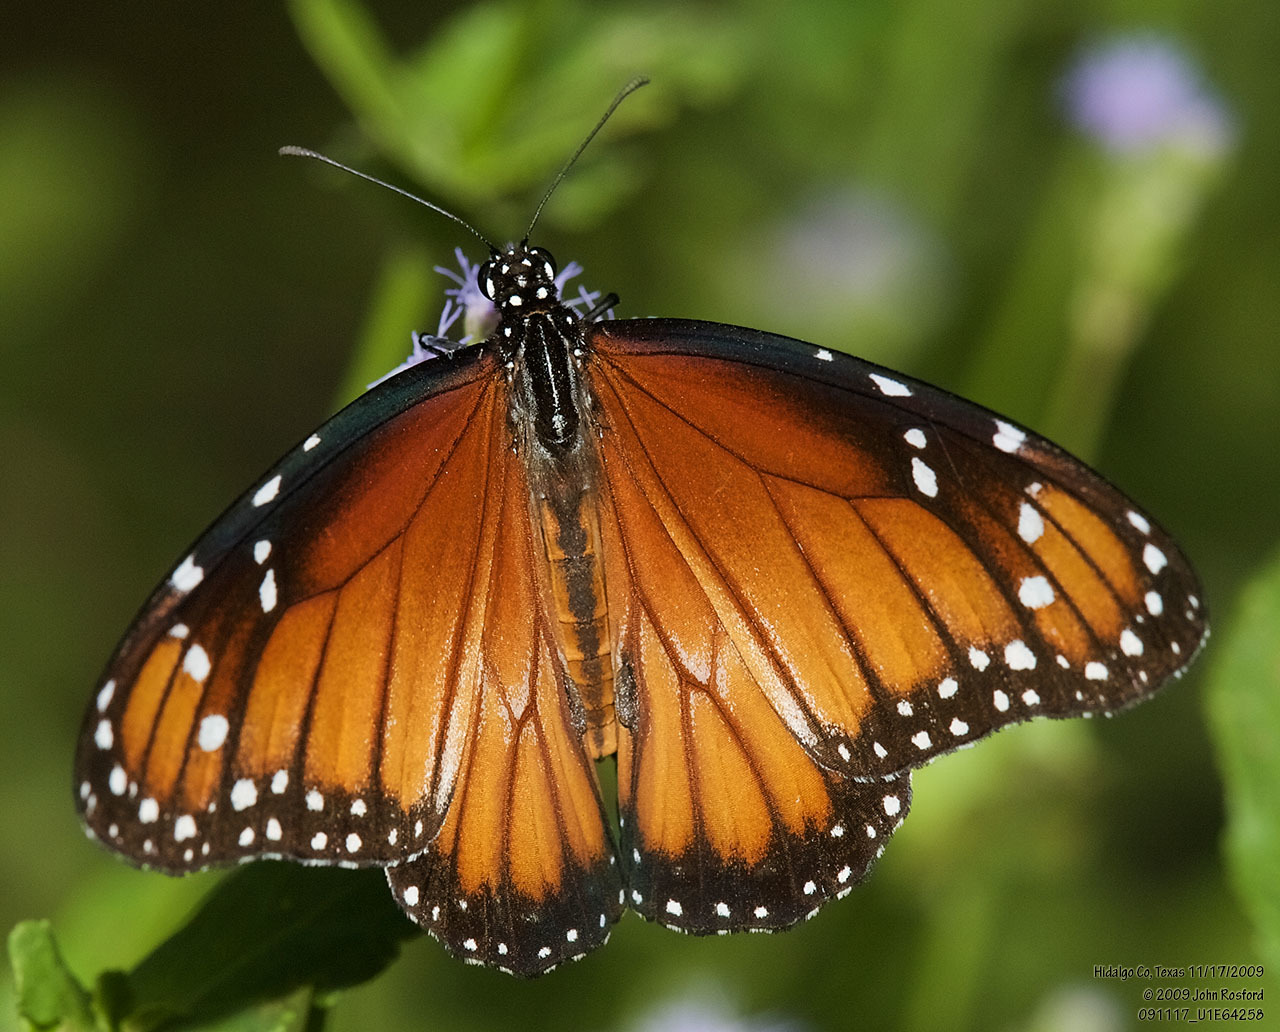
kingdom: Animalia
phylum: Arthropoda
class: Insecta
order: Lepidoptera
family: Nymphalidae
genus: Danaus
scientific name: Danaus eresimus
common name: Soldier
